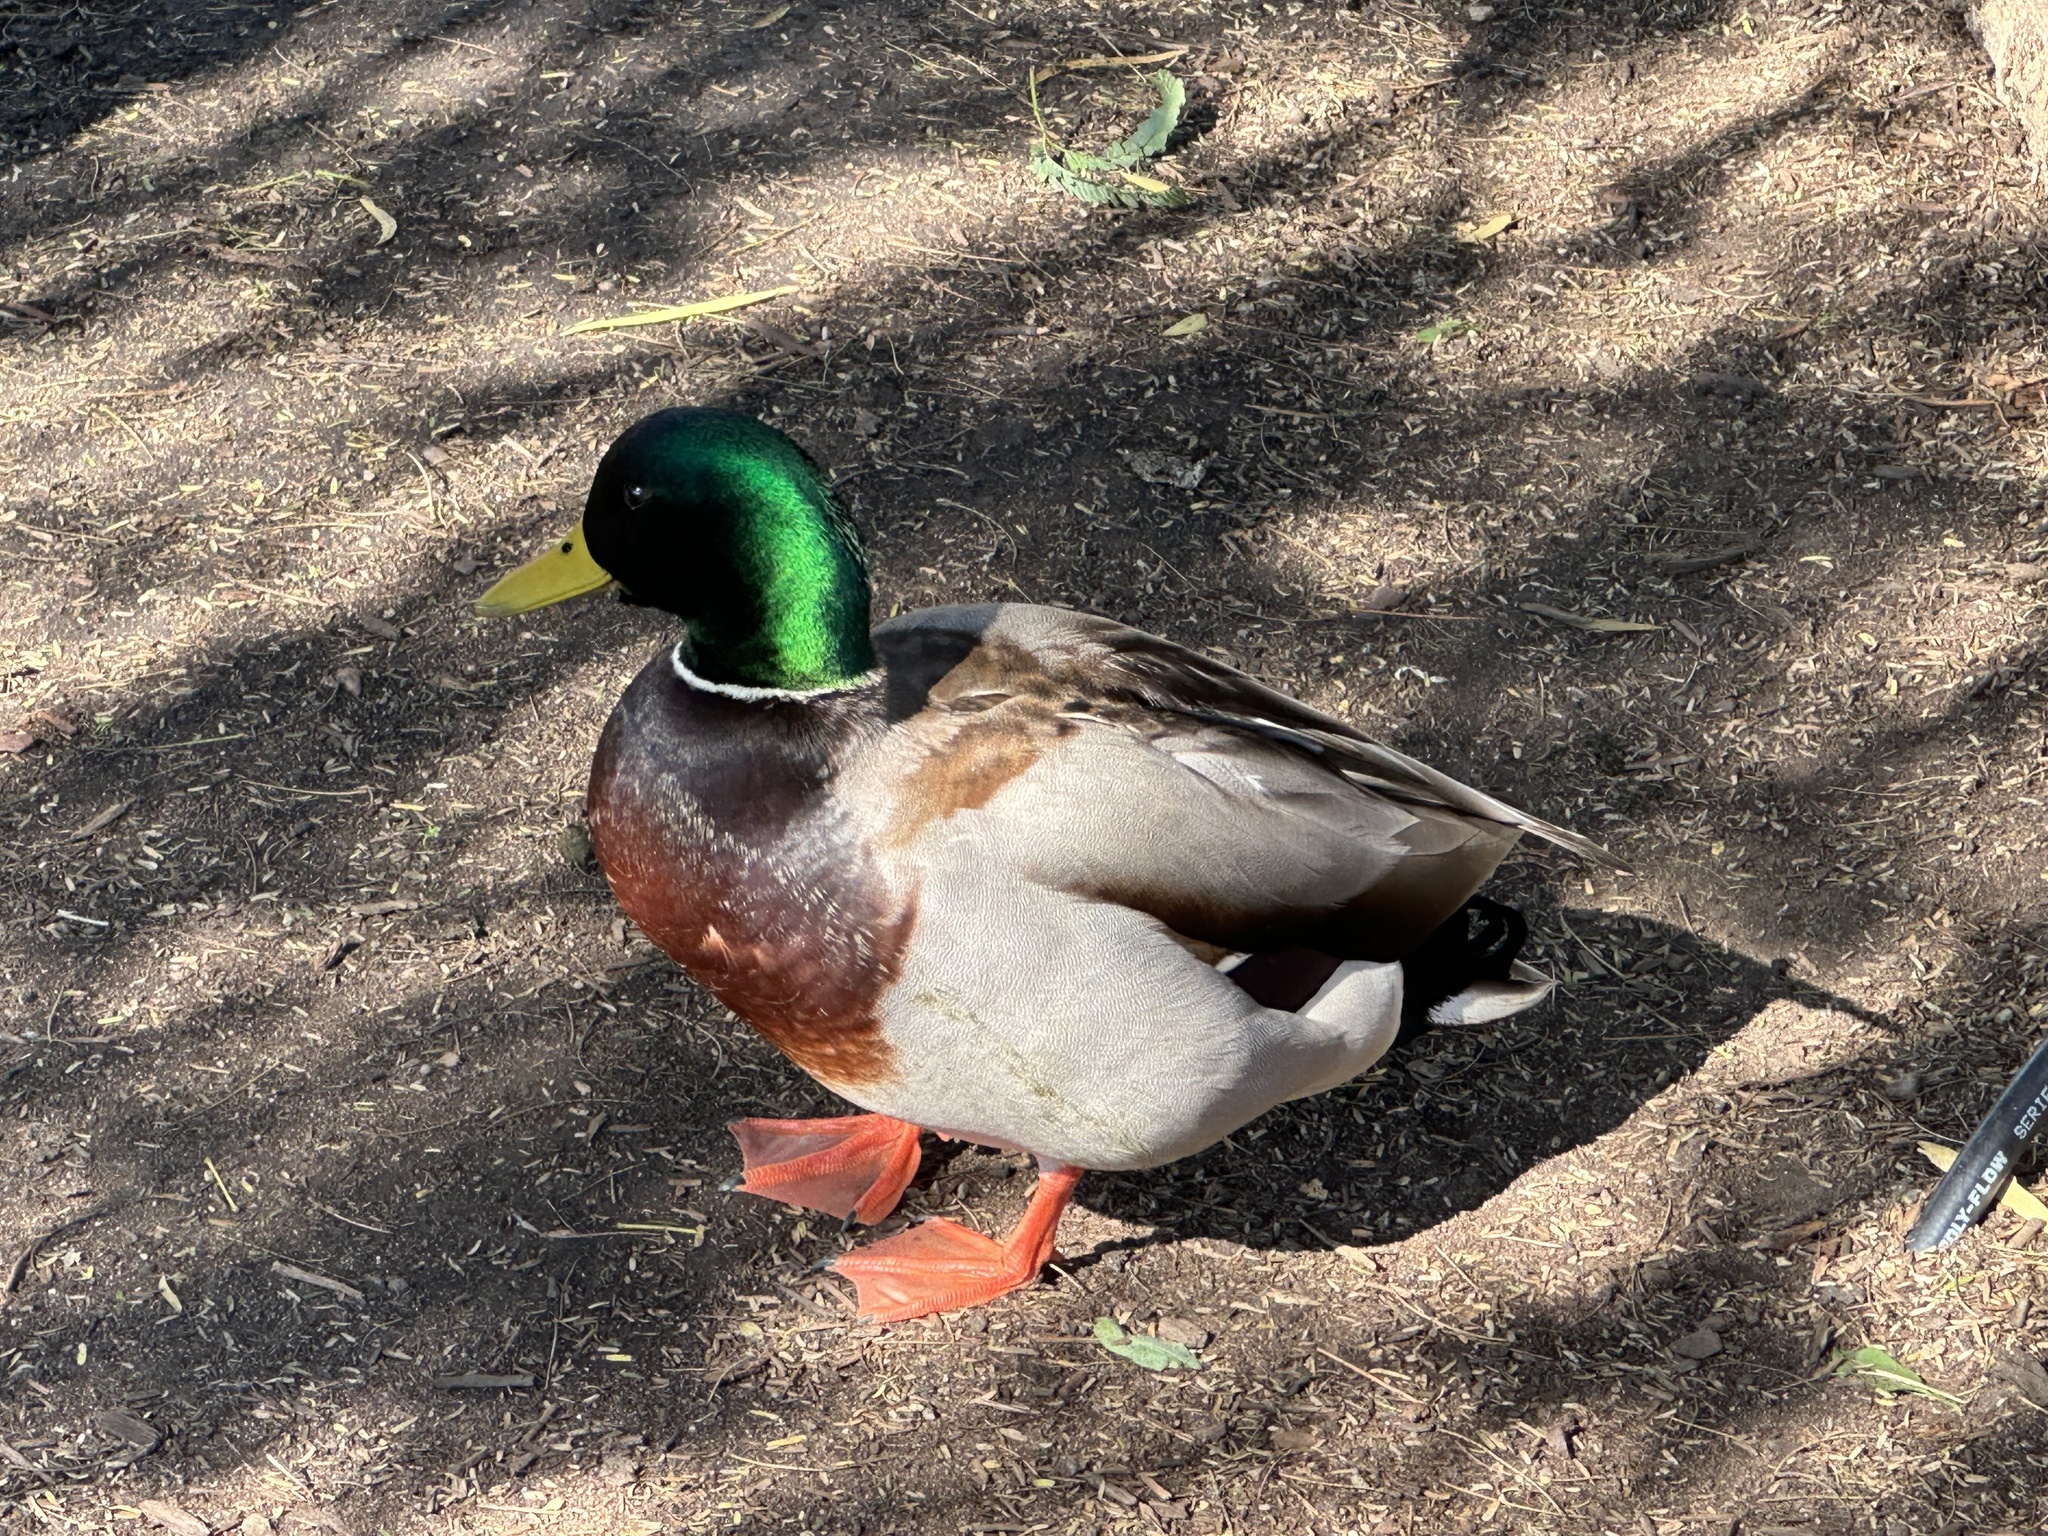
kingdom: Animalia
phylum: Chordata
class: Aves
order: Anseriformes
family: Anatidae
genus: Anas
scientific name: Anas platyrhynchos
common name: Mallard
